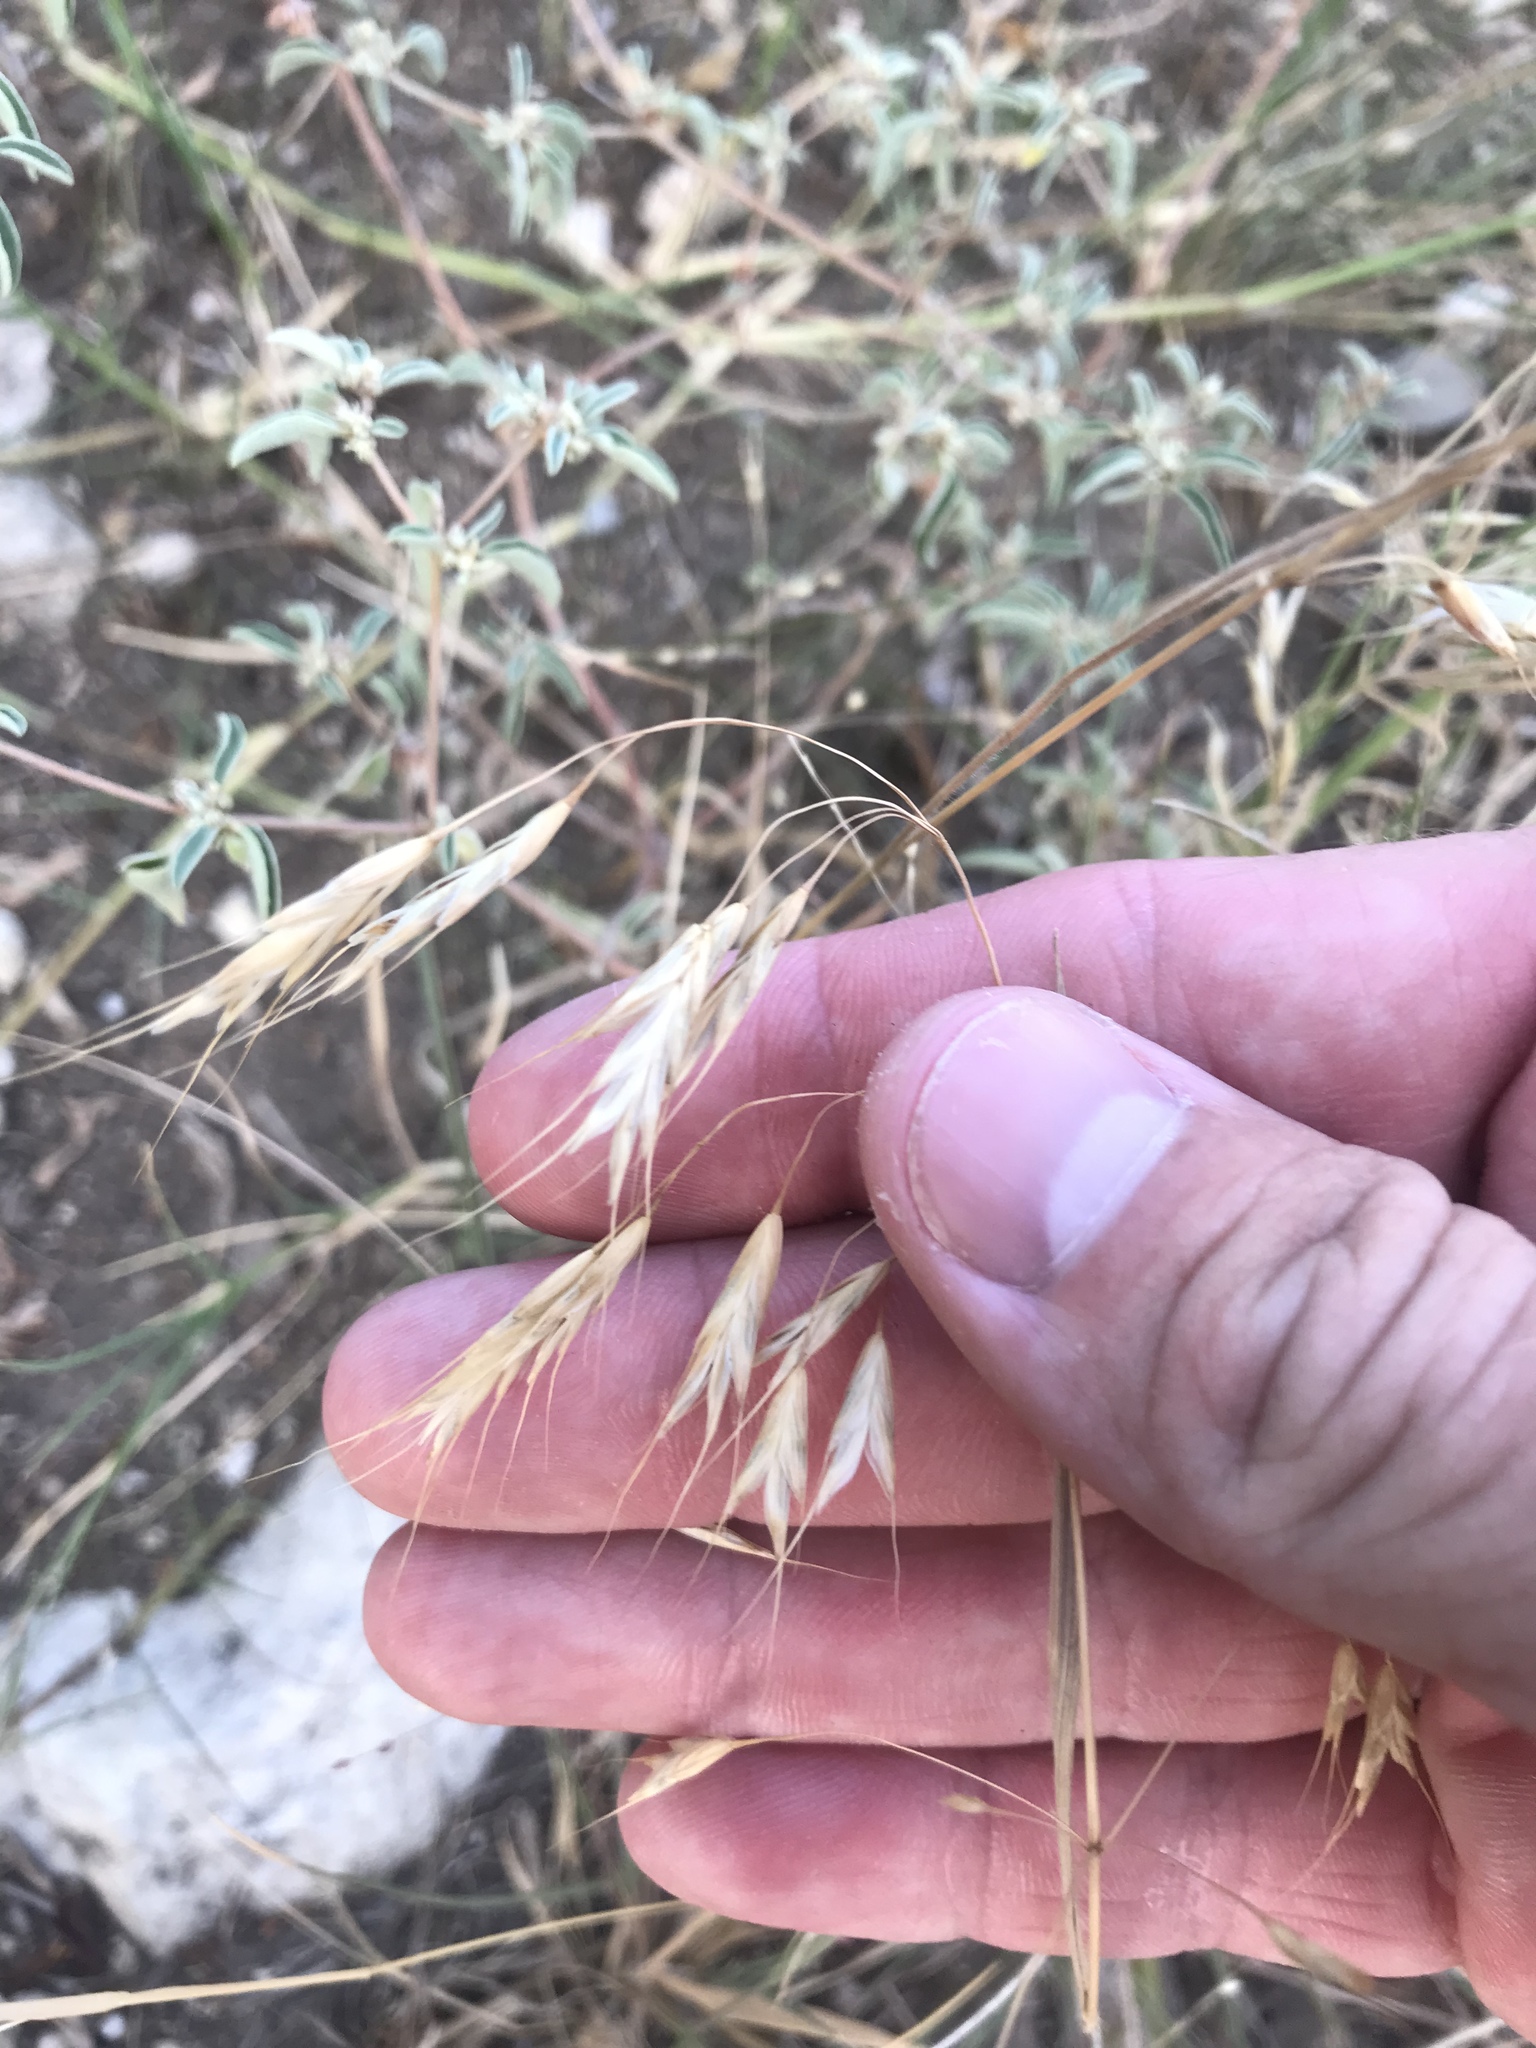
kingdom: Plantae
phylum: Tracheophyta
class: Liliopsida
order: Poales
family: Poaceae
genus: Bromus
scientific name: Bromus japonicus
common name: Japanese brome
